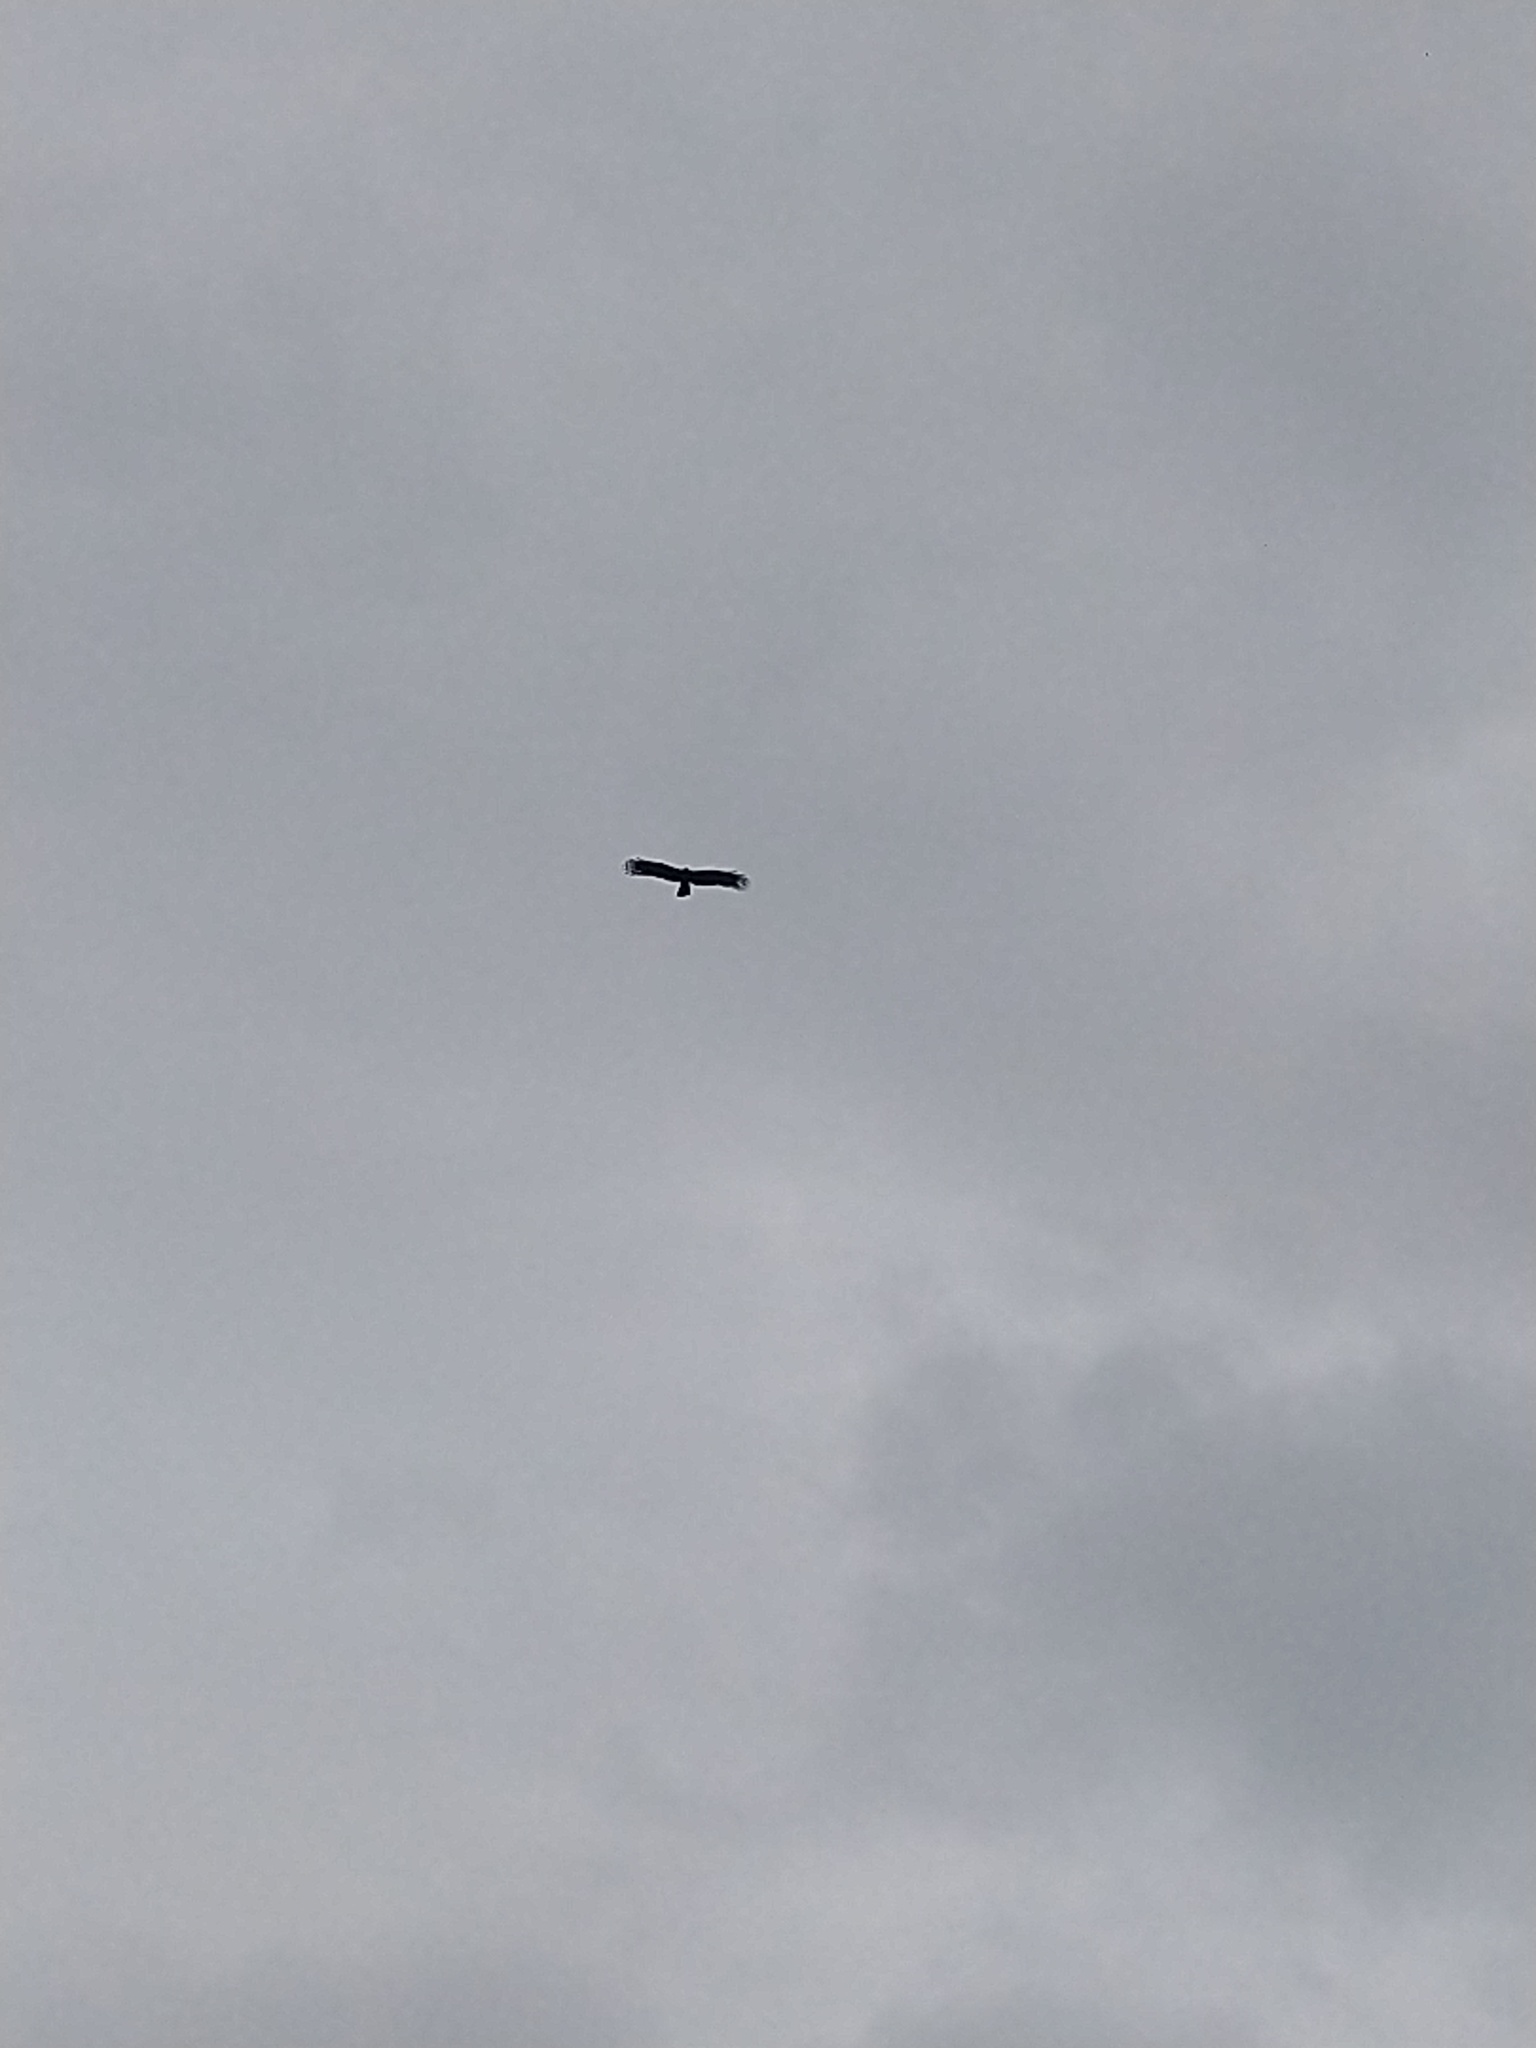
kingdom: Animalia
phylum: Chordata
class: Aves
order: Accipitriformes
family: Accipitridae
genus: Ictinaetus
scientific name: Ictinaetus malayensis
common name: Black eagle
